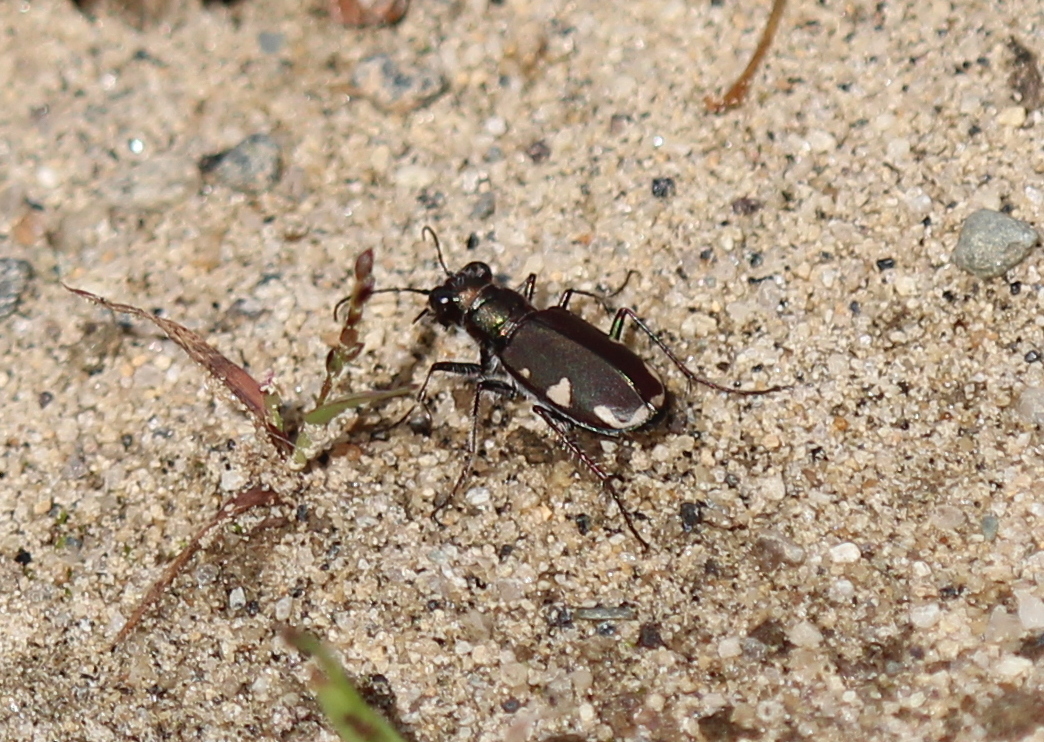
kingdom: Animalia
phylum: Arthropoda
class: Insecta
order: Coleoptera
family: Carabidae
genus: Cicindela
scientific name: Cicindela scutellaris
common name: Festive tiger beetle
